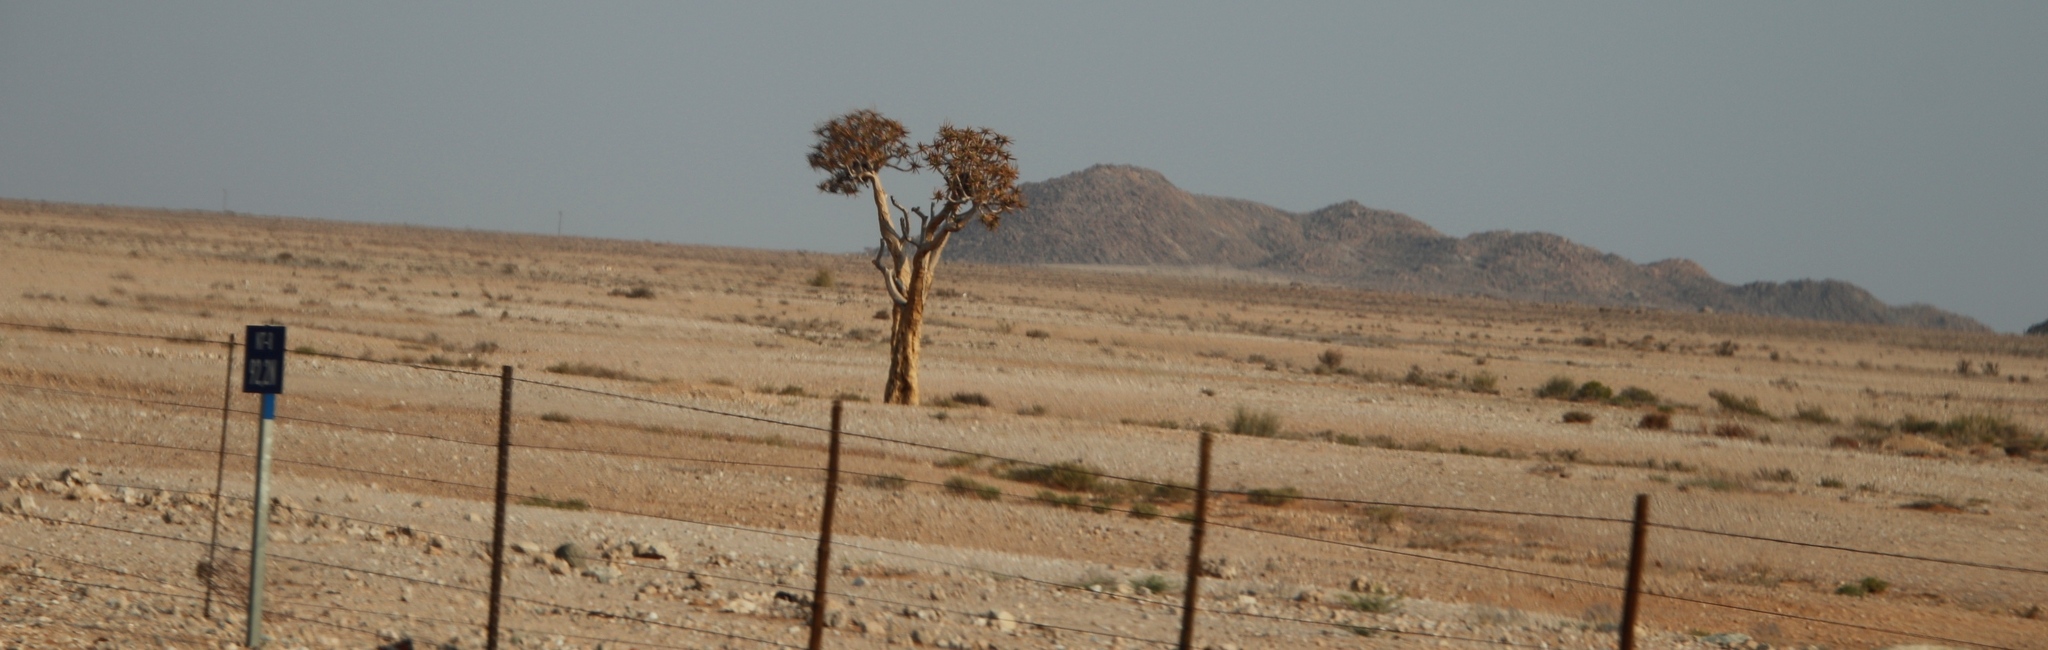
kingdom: Plantae
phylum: Tracheophyta
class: Liliopsida
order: Asparagales
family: Asphodelaceae
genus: Aloidendron
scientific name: Aloidendron dichotomum
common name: Quiver tree
